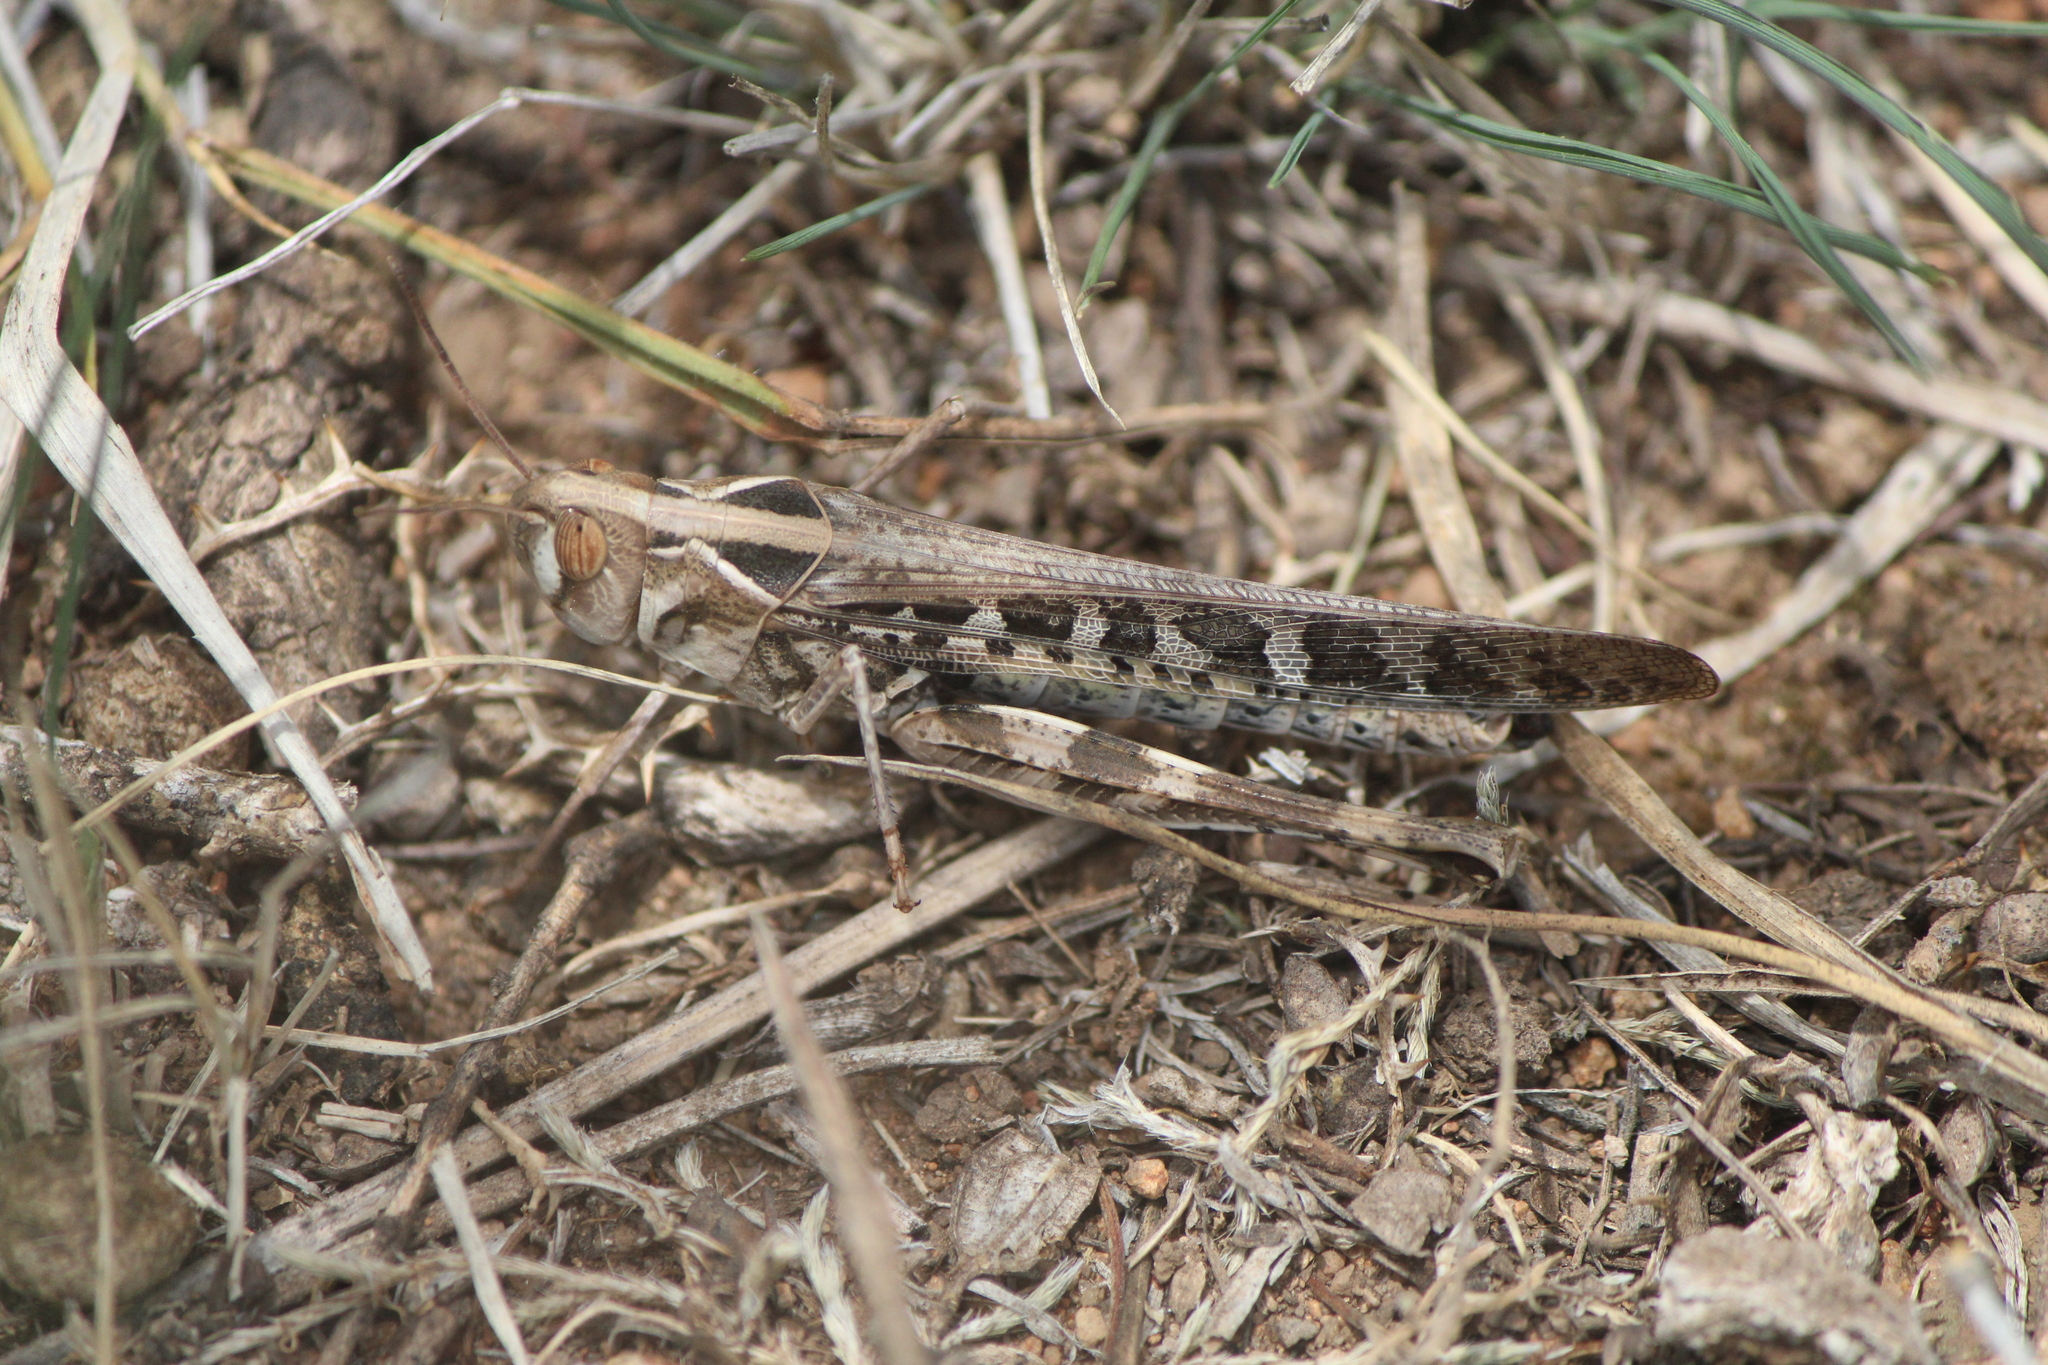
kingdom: Animalia
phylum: Arthropoda
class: Insecta
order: Orthoptera
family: Acrididae
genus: Rhammatocerus
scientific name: Rhammatocerus viatorius
